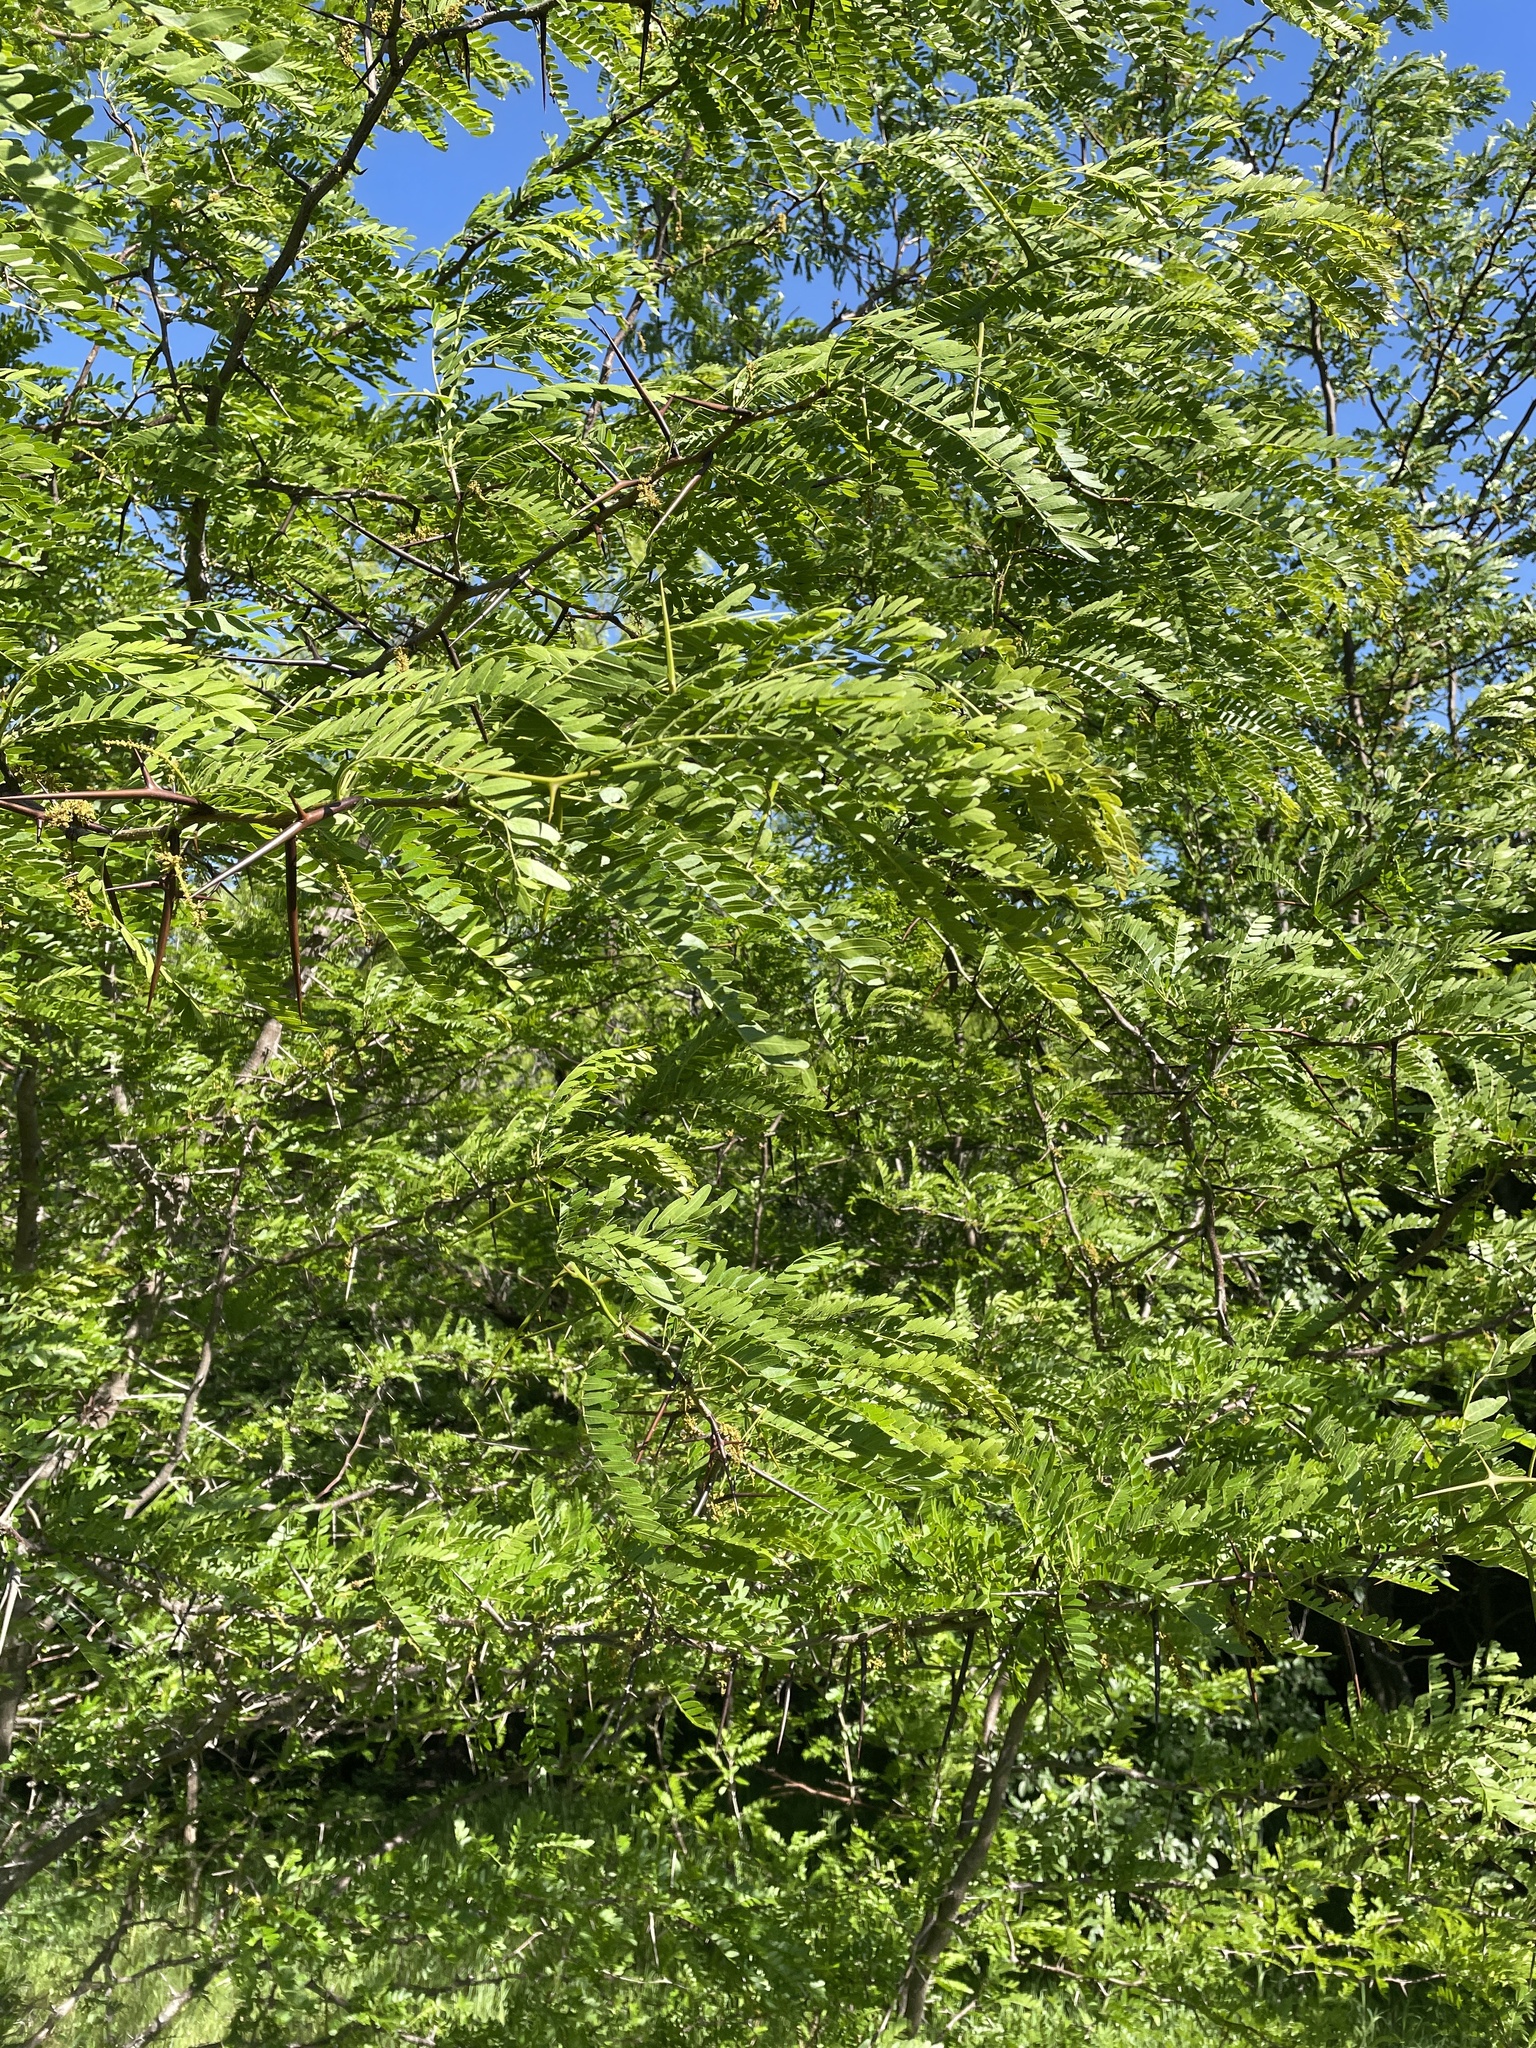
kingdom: Plantae
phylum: Tracheophyta
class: Magnoliopsida
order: Fabales
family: Fabaceae
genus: Gleditsia
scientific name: Gleditsia triacanthos
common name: Common honeylocust
